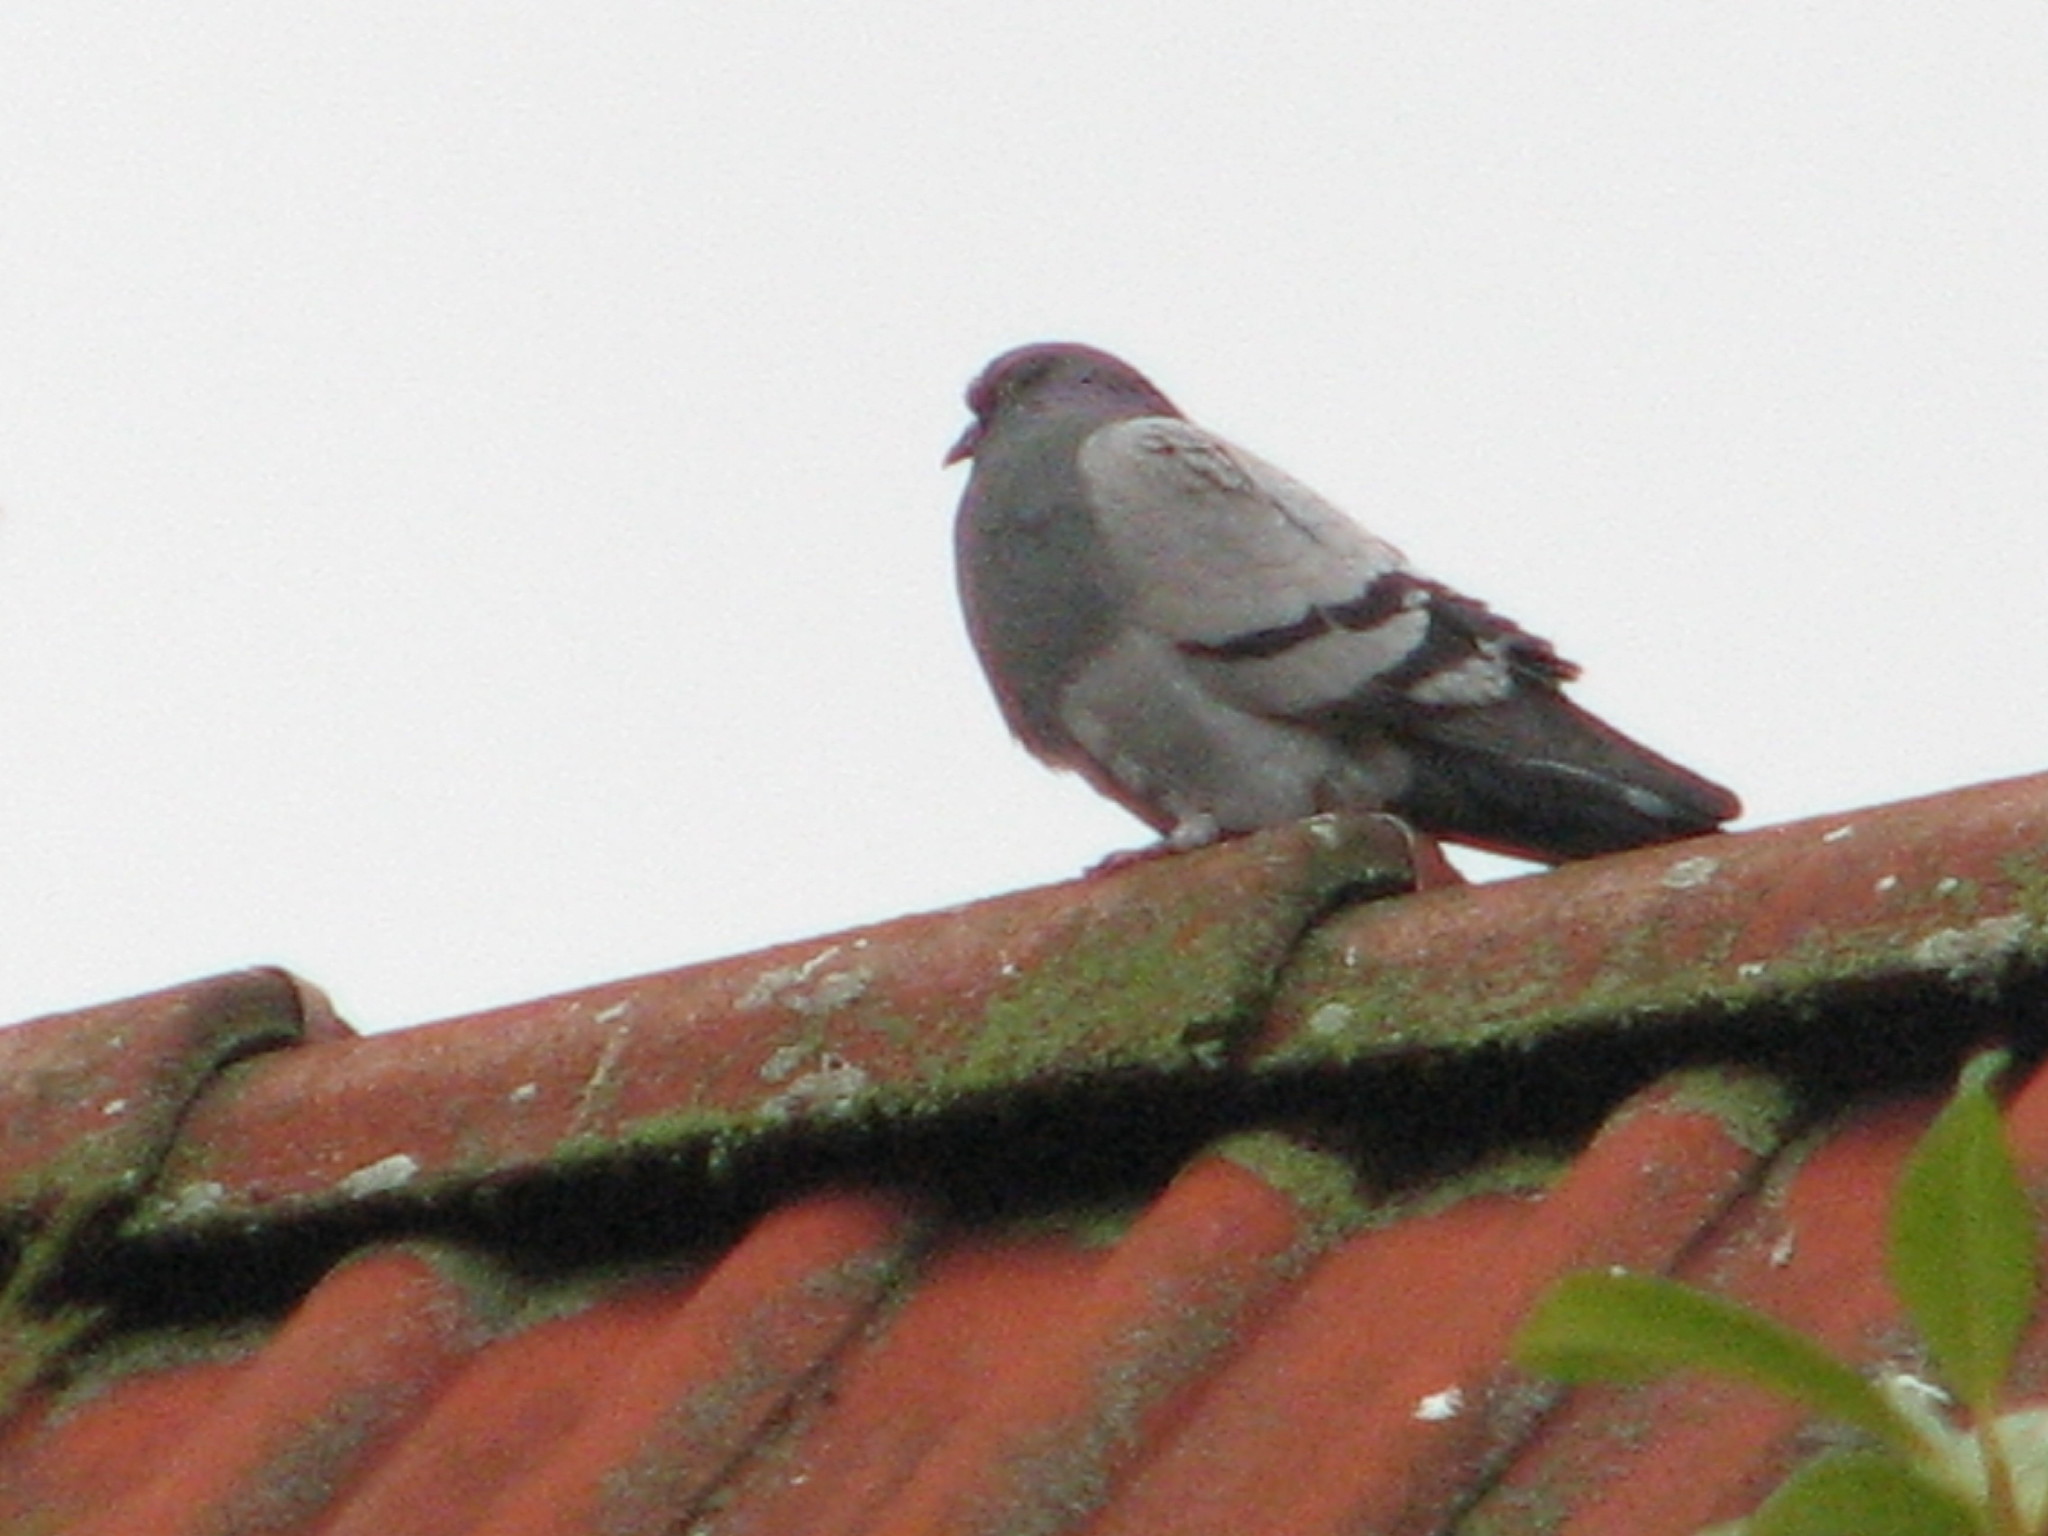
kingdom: Animalia
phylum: Chordata
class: Aves
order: Columbiformes
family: Columbidae
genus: Columba
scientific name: Columba livia
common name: Rock pigeon
